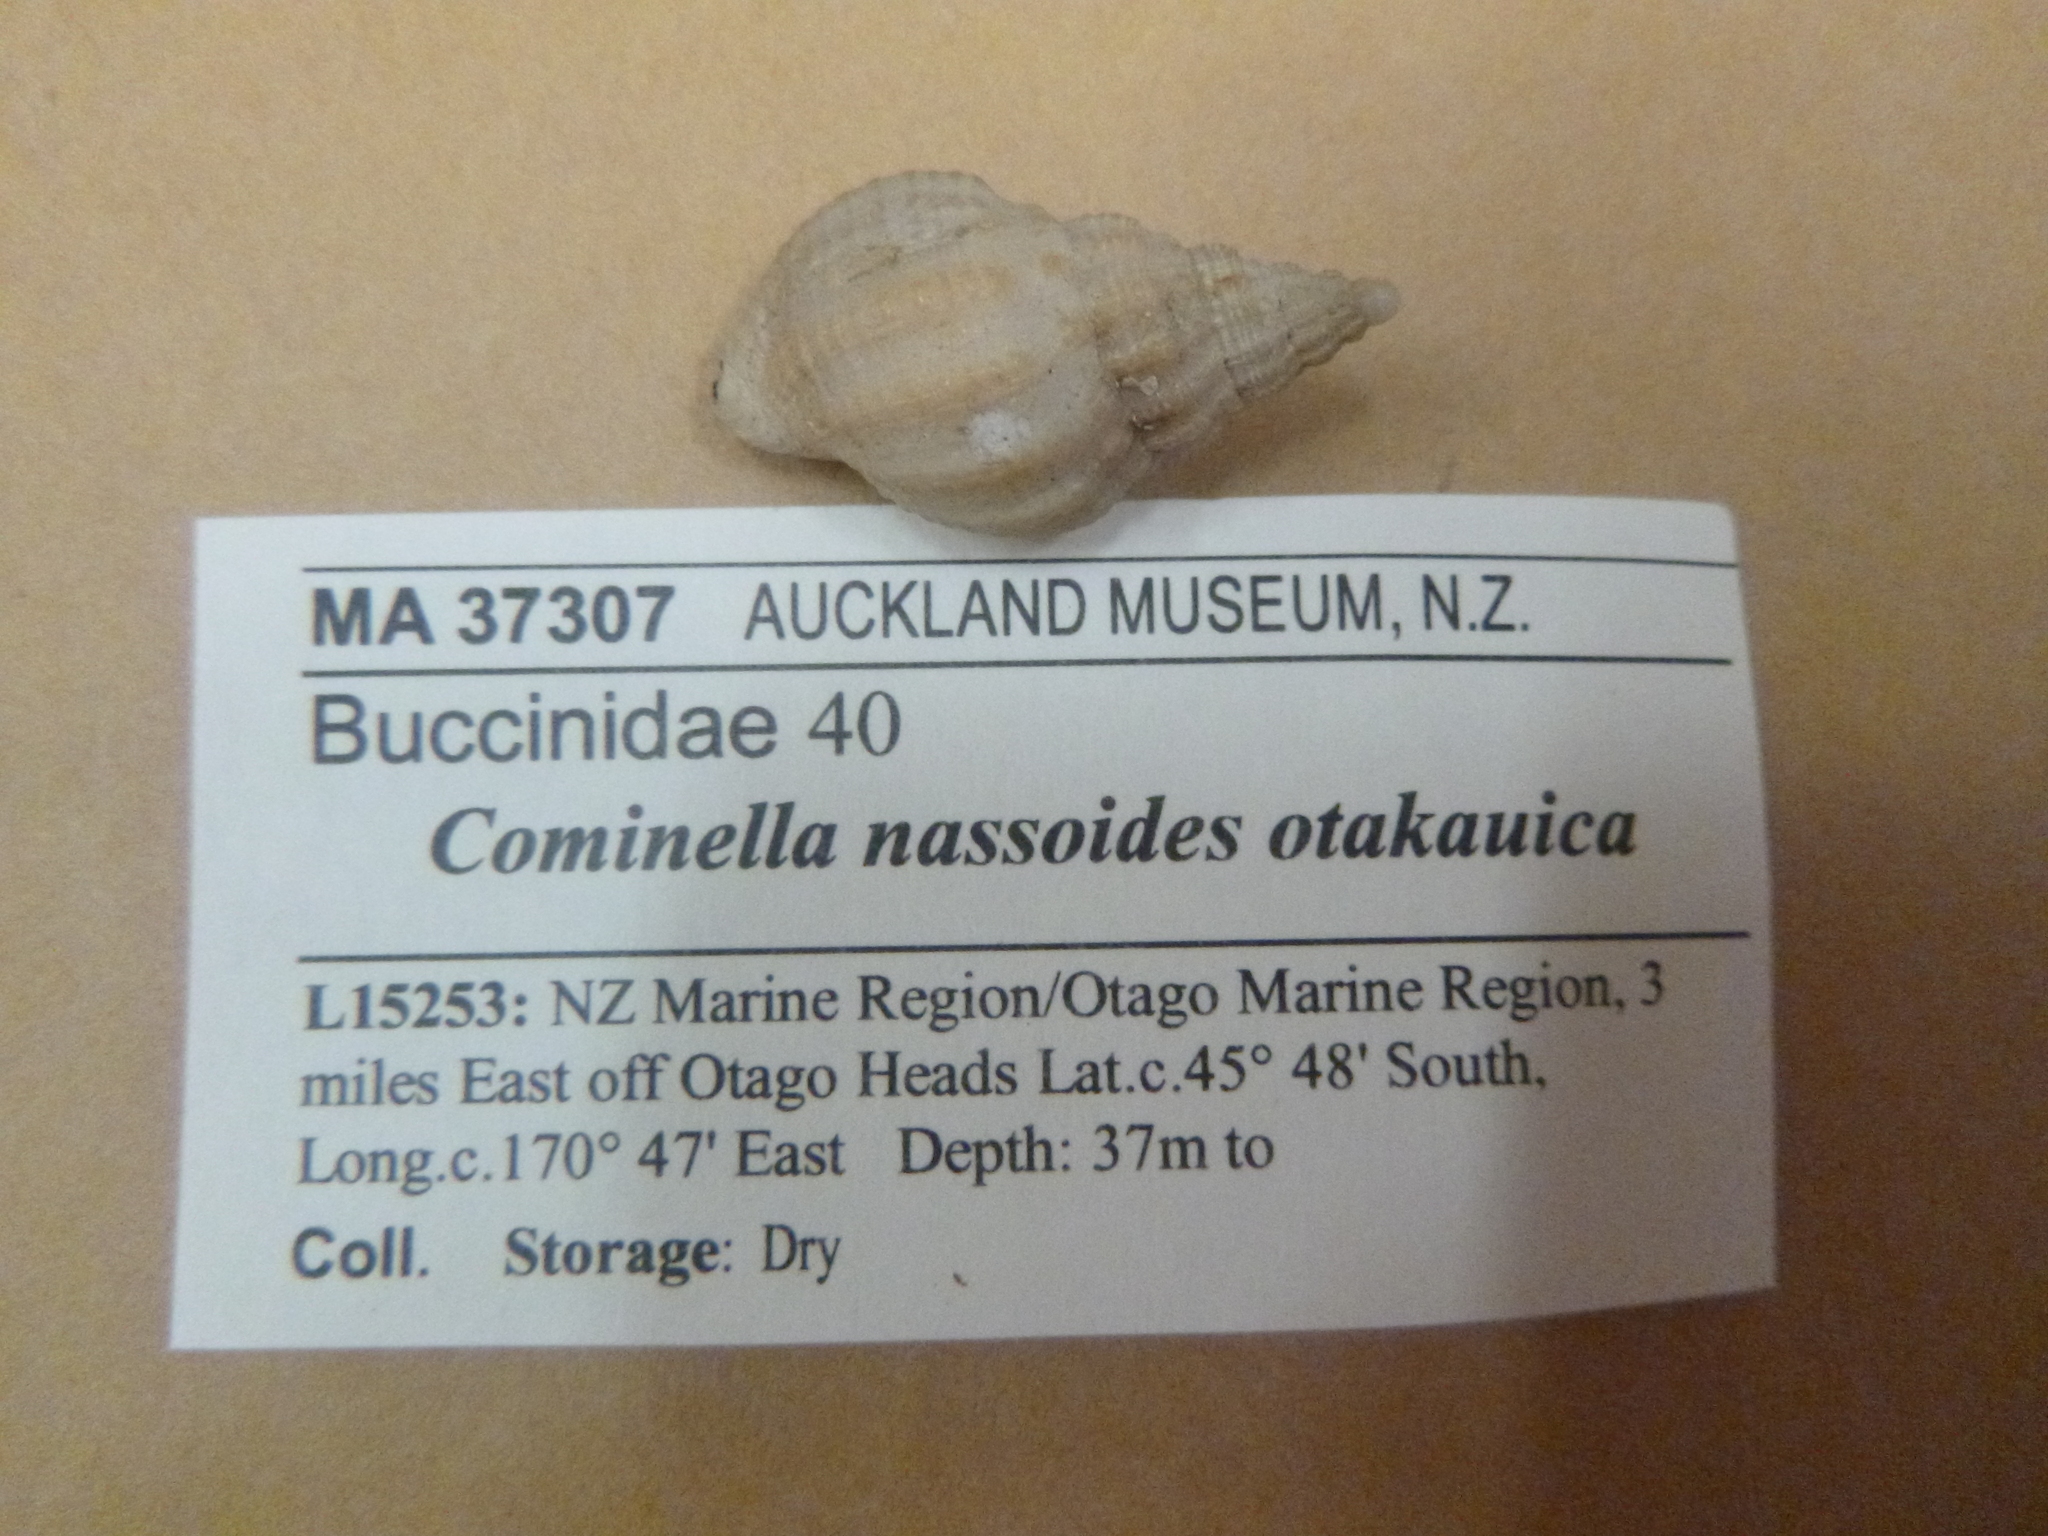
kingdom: Animalia
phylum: Mollusca
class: Gastropoda
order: Neogastropoda
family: Cominellidae
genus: Cominella
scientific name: Cominella nassoides
